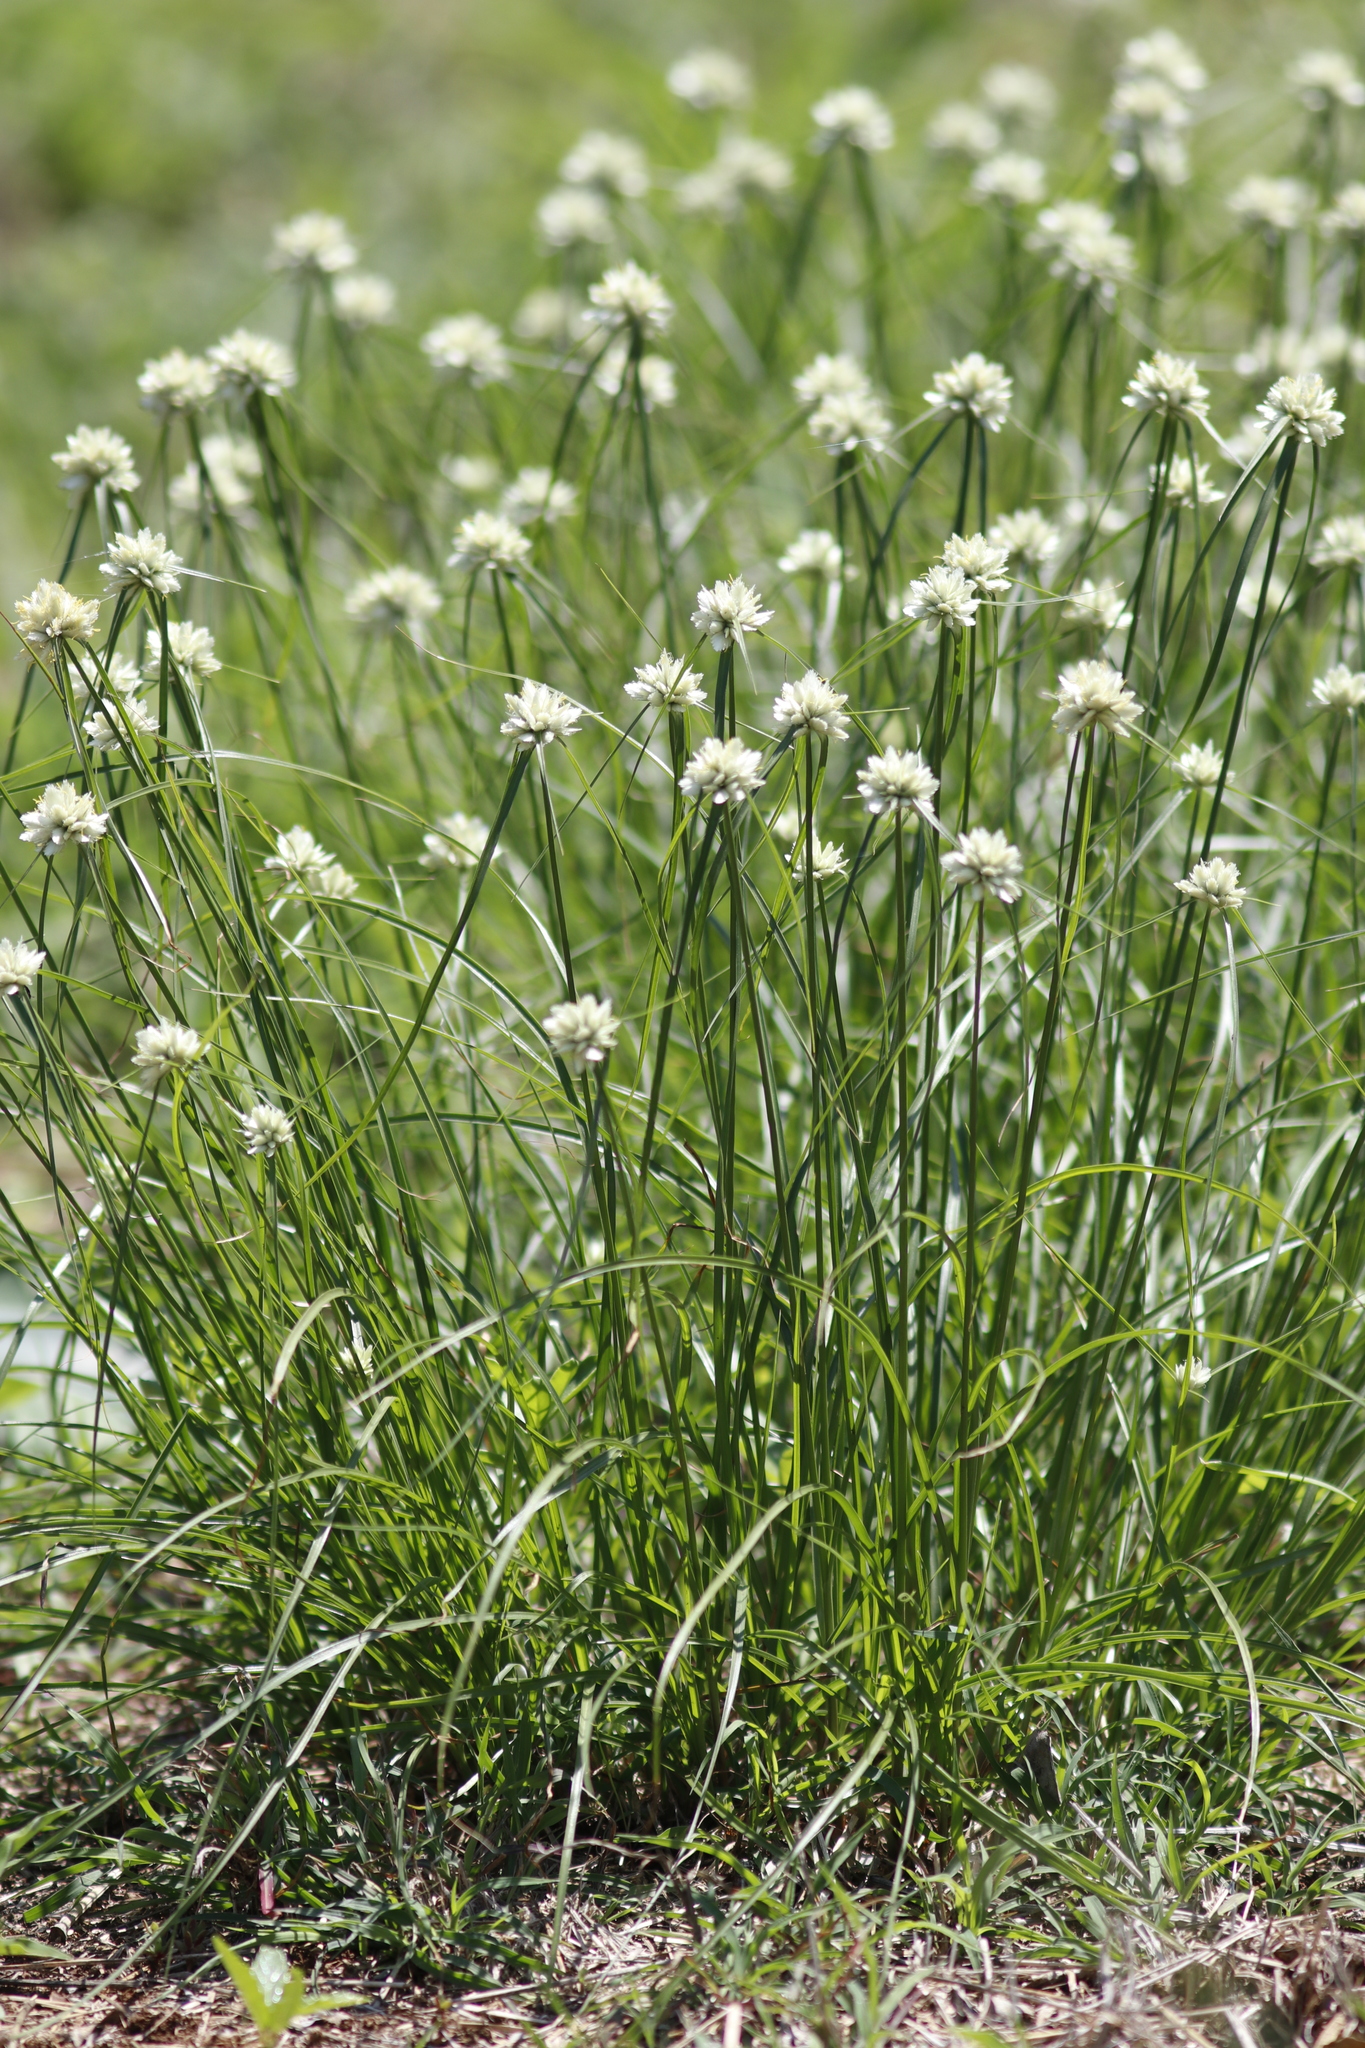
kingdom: Plantae
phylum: Tracheophyta
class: Liliopsida
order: Poales
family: Cyperaceae
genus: Cyperus
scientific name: Cyperus niveus
